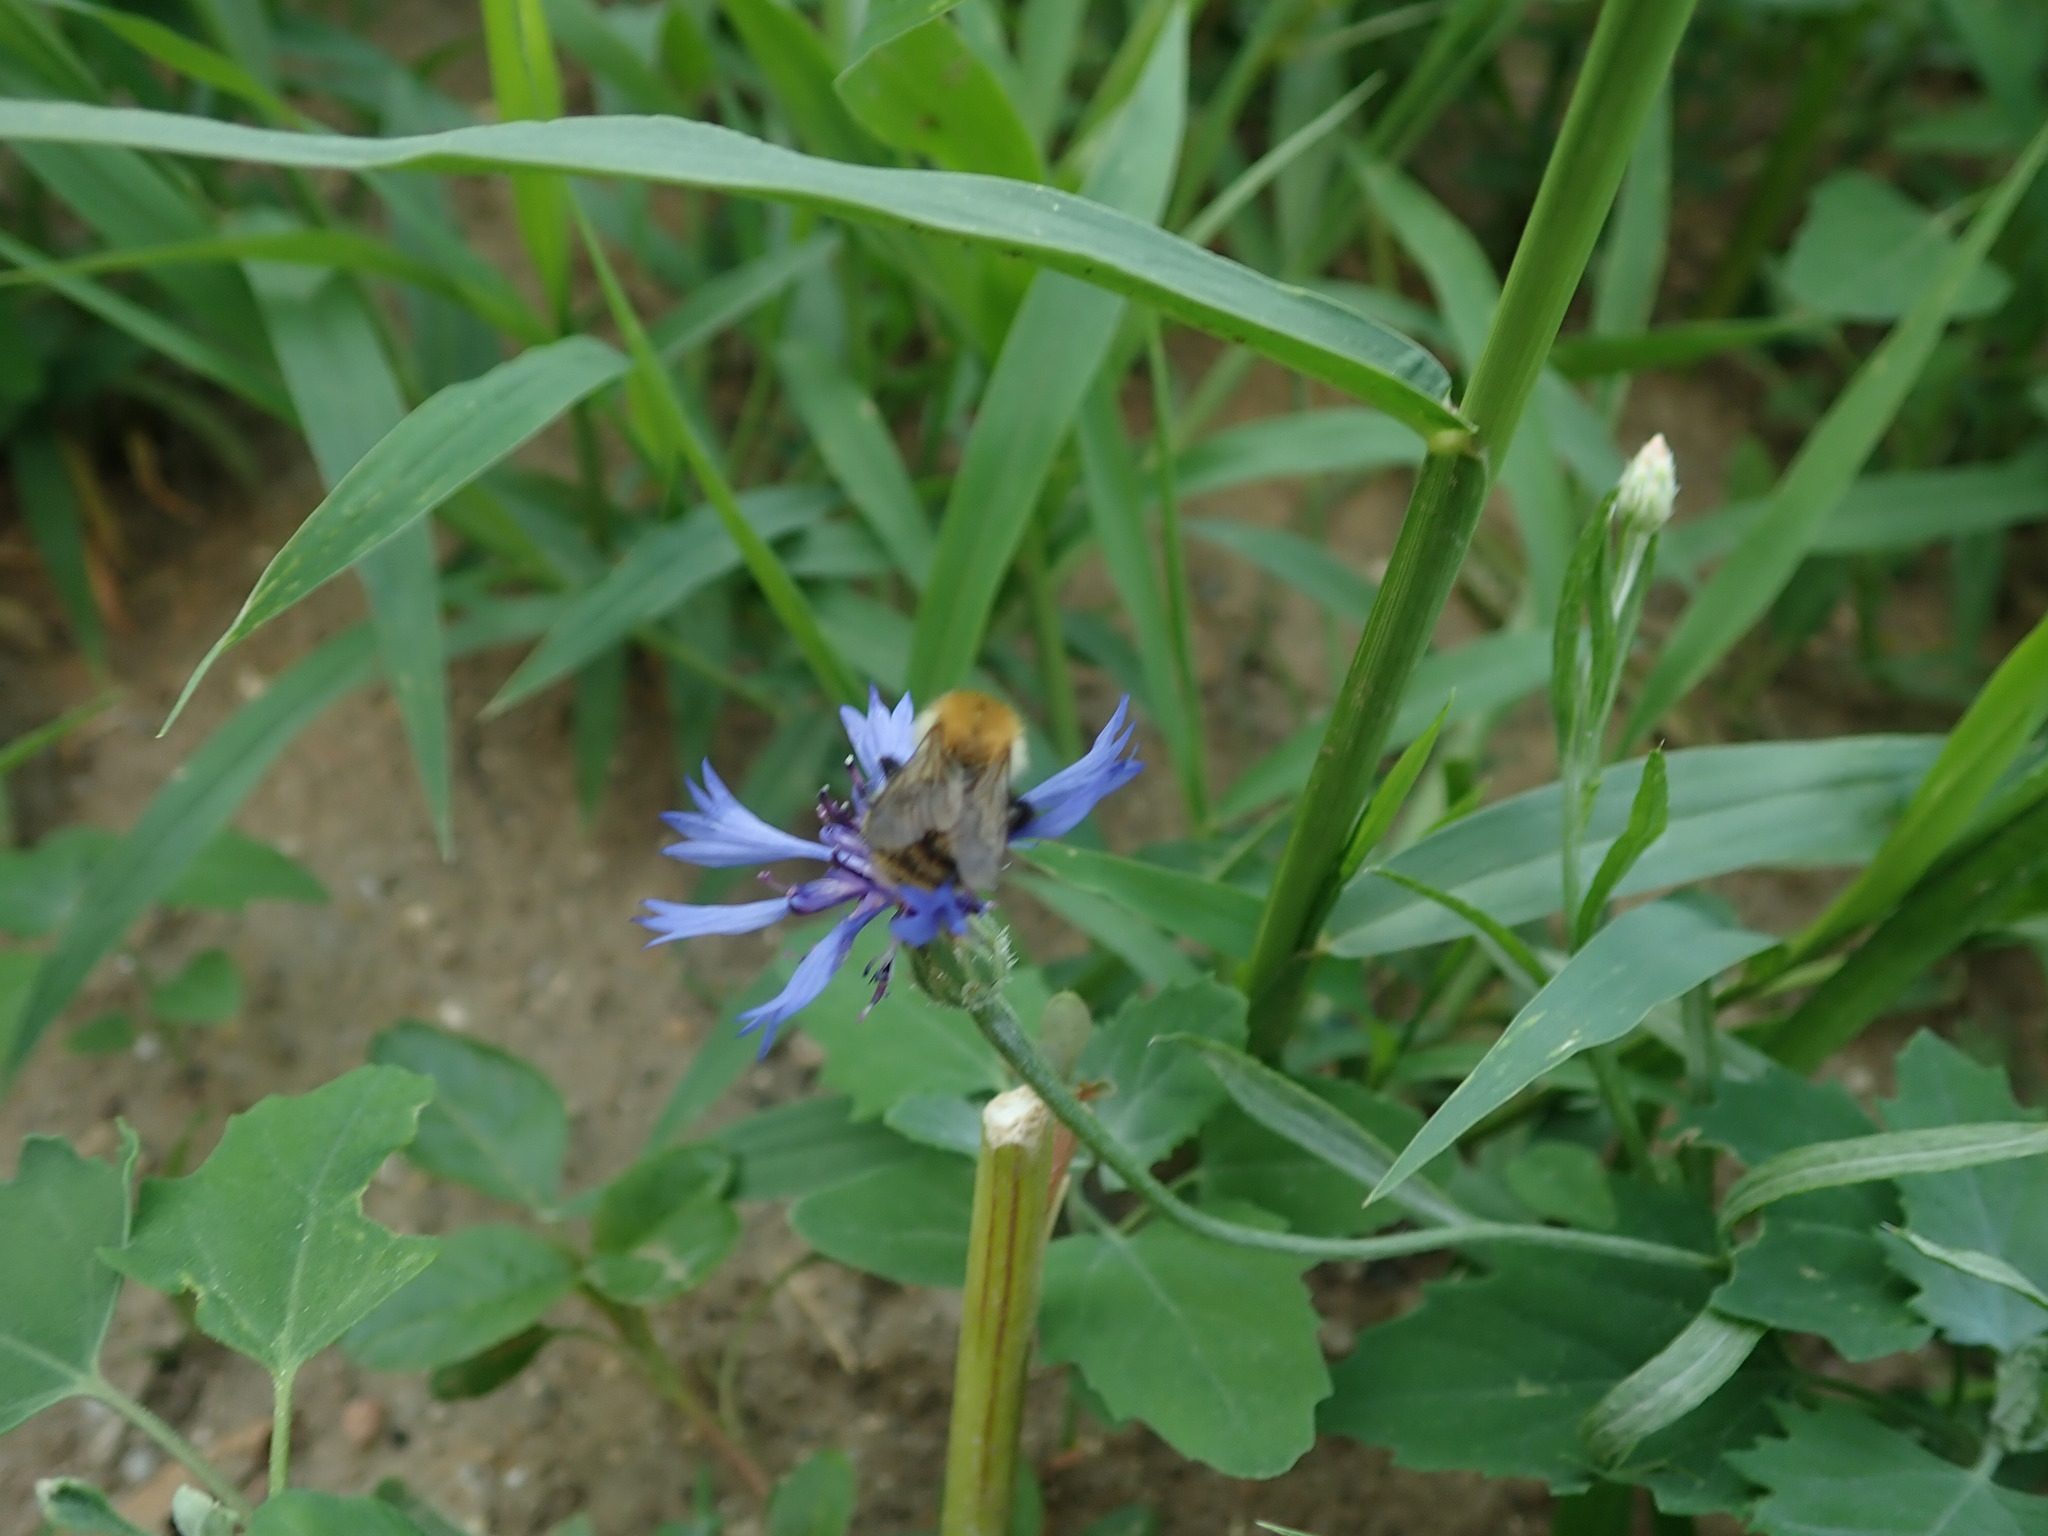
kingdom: Plantae
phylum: Tracheophyta
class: Magnoliopsida
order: Asterales
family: Asteraceae
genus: Centaurea
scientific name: Centaurea cyanus
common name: Cornflower
